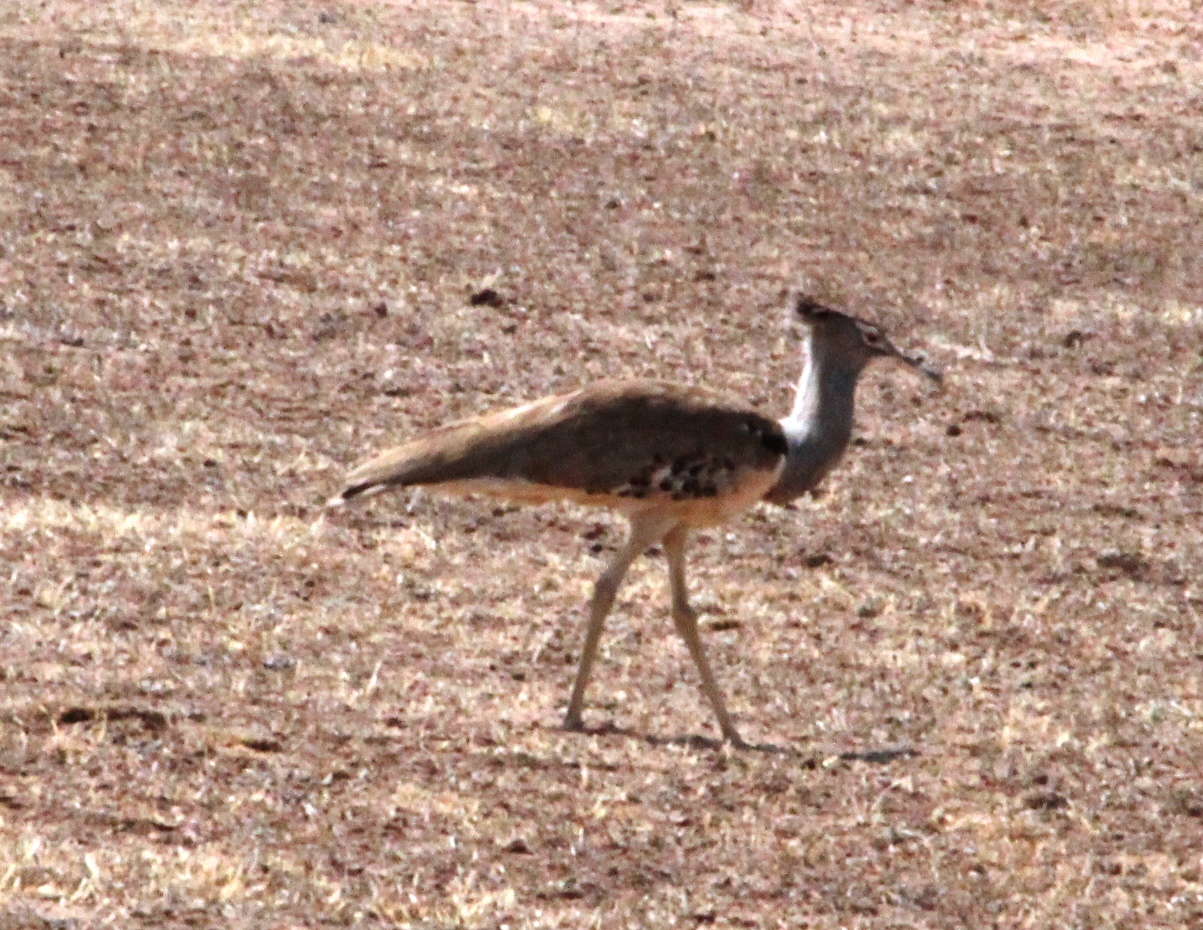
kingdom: Animalia
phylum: Chordata
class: Aves
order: Otidiformes
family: Otididae
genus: Ardeotis
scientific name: Ardeotis kori
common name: Kori bustard
